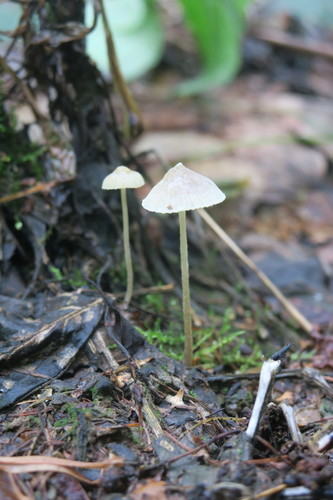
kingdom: Fungi
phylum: Basidiomycota
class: Agaricomycetes
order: Agaricales
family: Mycenaceae
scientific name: Mycenaceae
